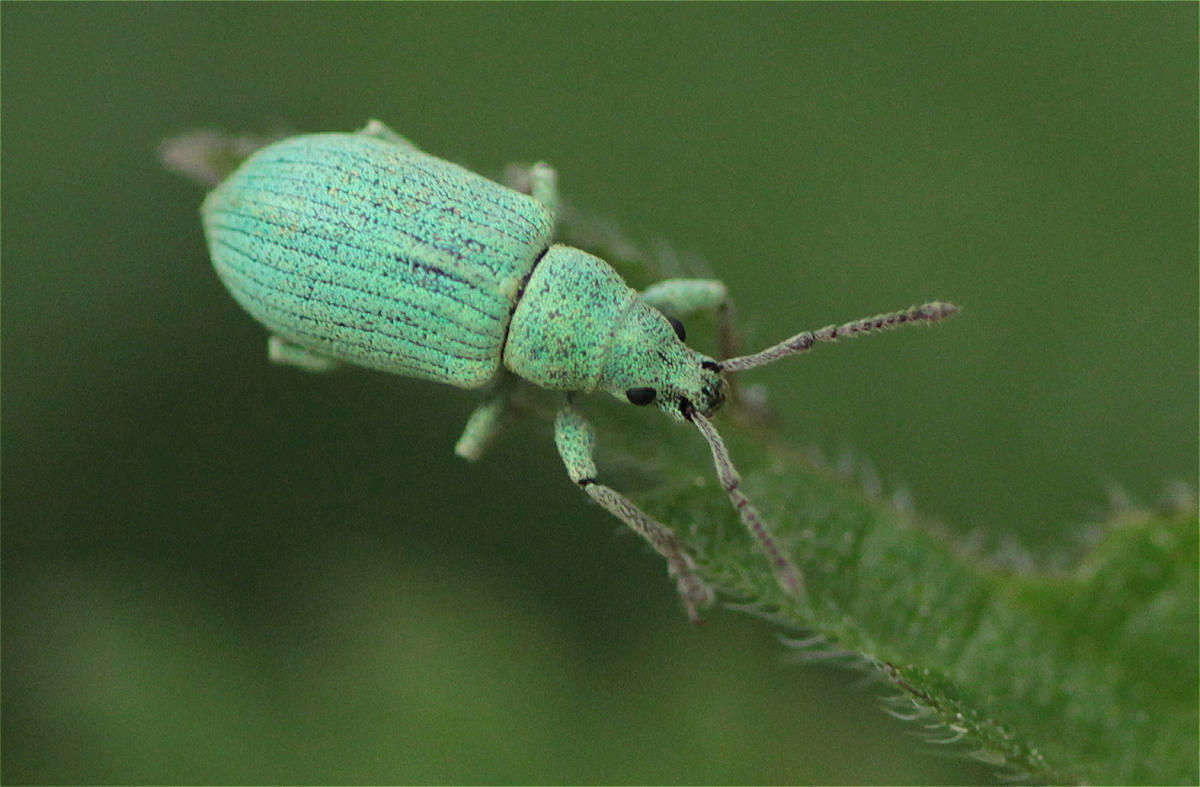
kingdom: Animalia
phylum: Arthropoda
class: Insecta
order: Coleoptera
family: Curculionidae
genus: Phyllobius
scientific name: Phyllobius virideaeris
